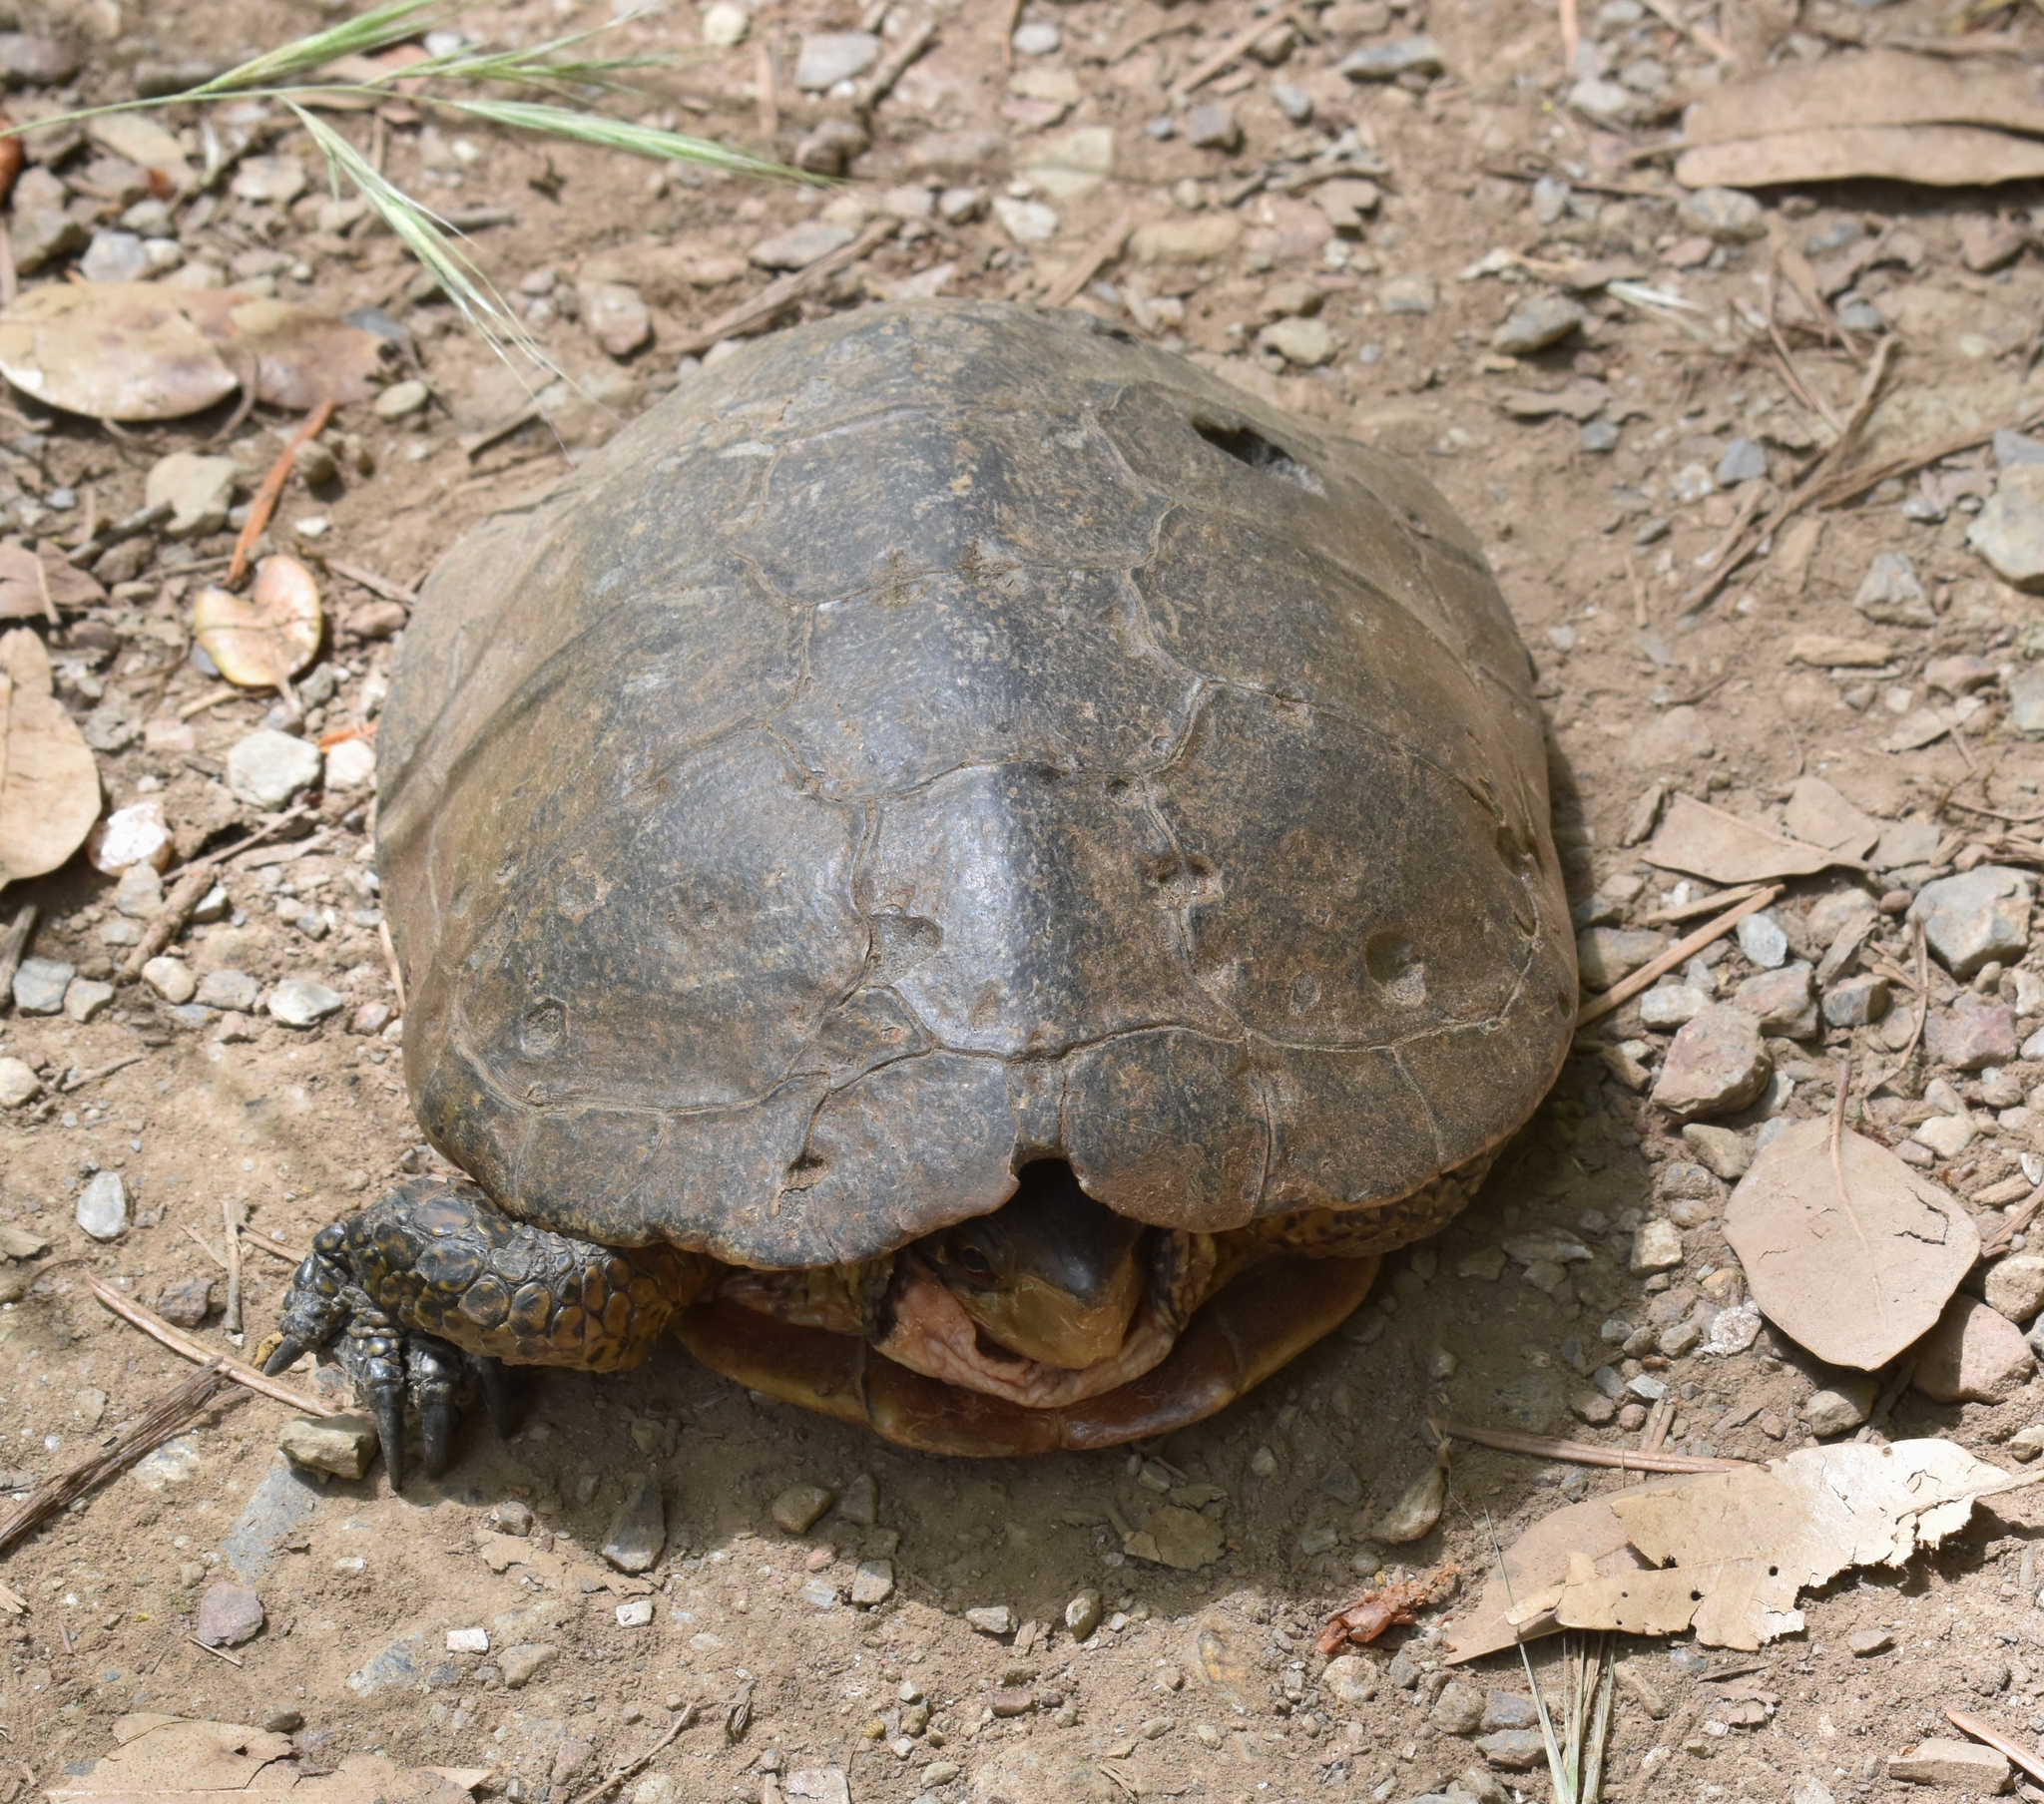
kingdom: Animalia
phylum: Chordata
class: Testudines
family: Emydidae
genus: Actinemys
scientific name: Actinemys marmorata
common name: Western pond turtle
